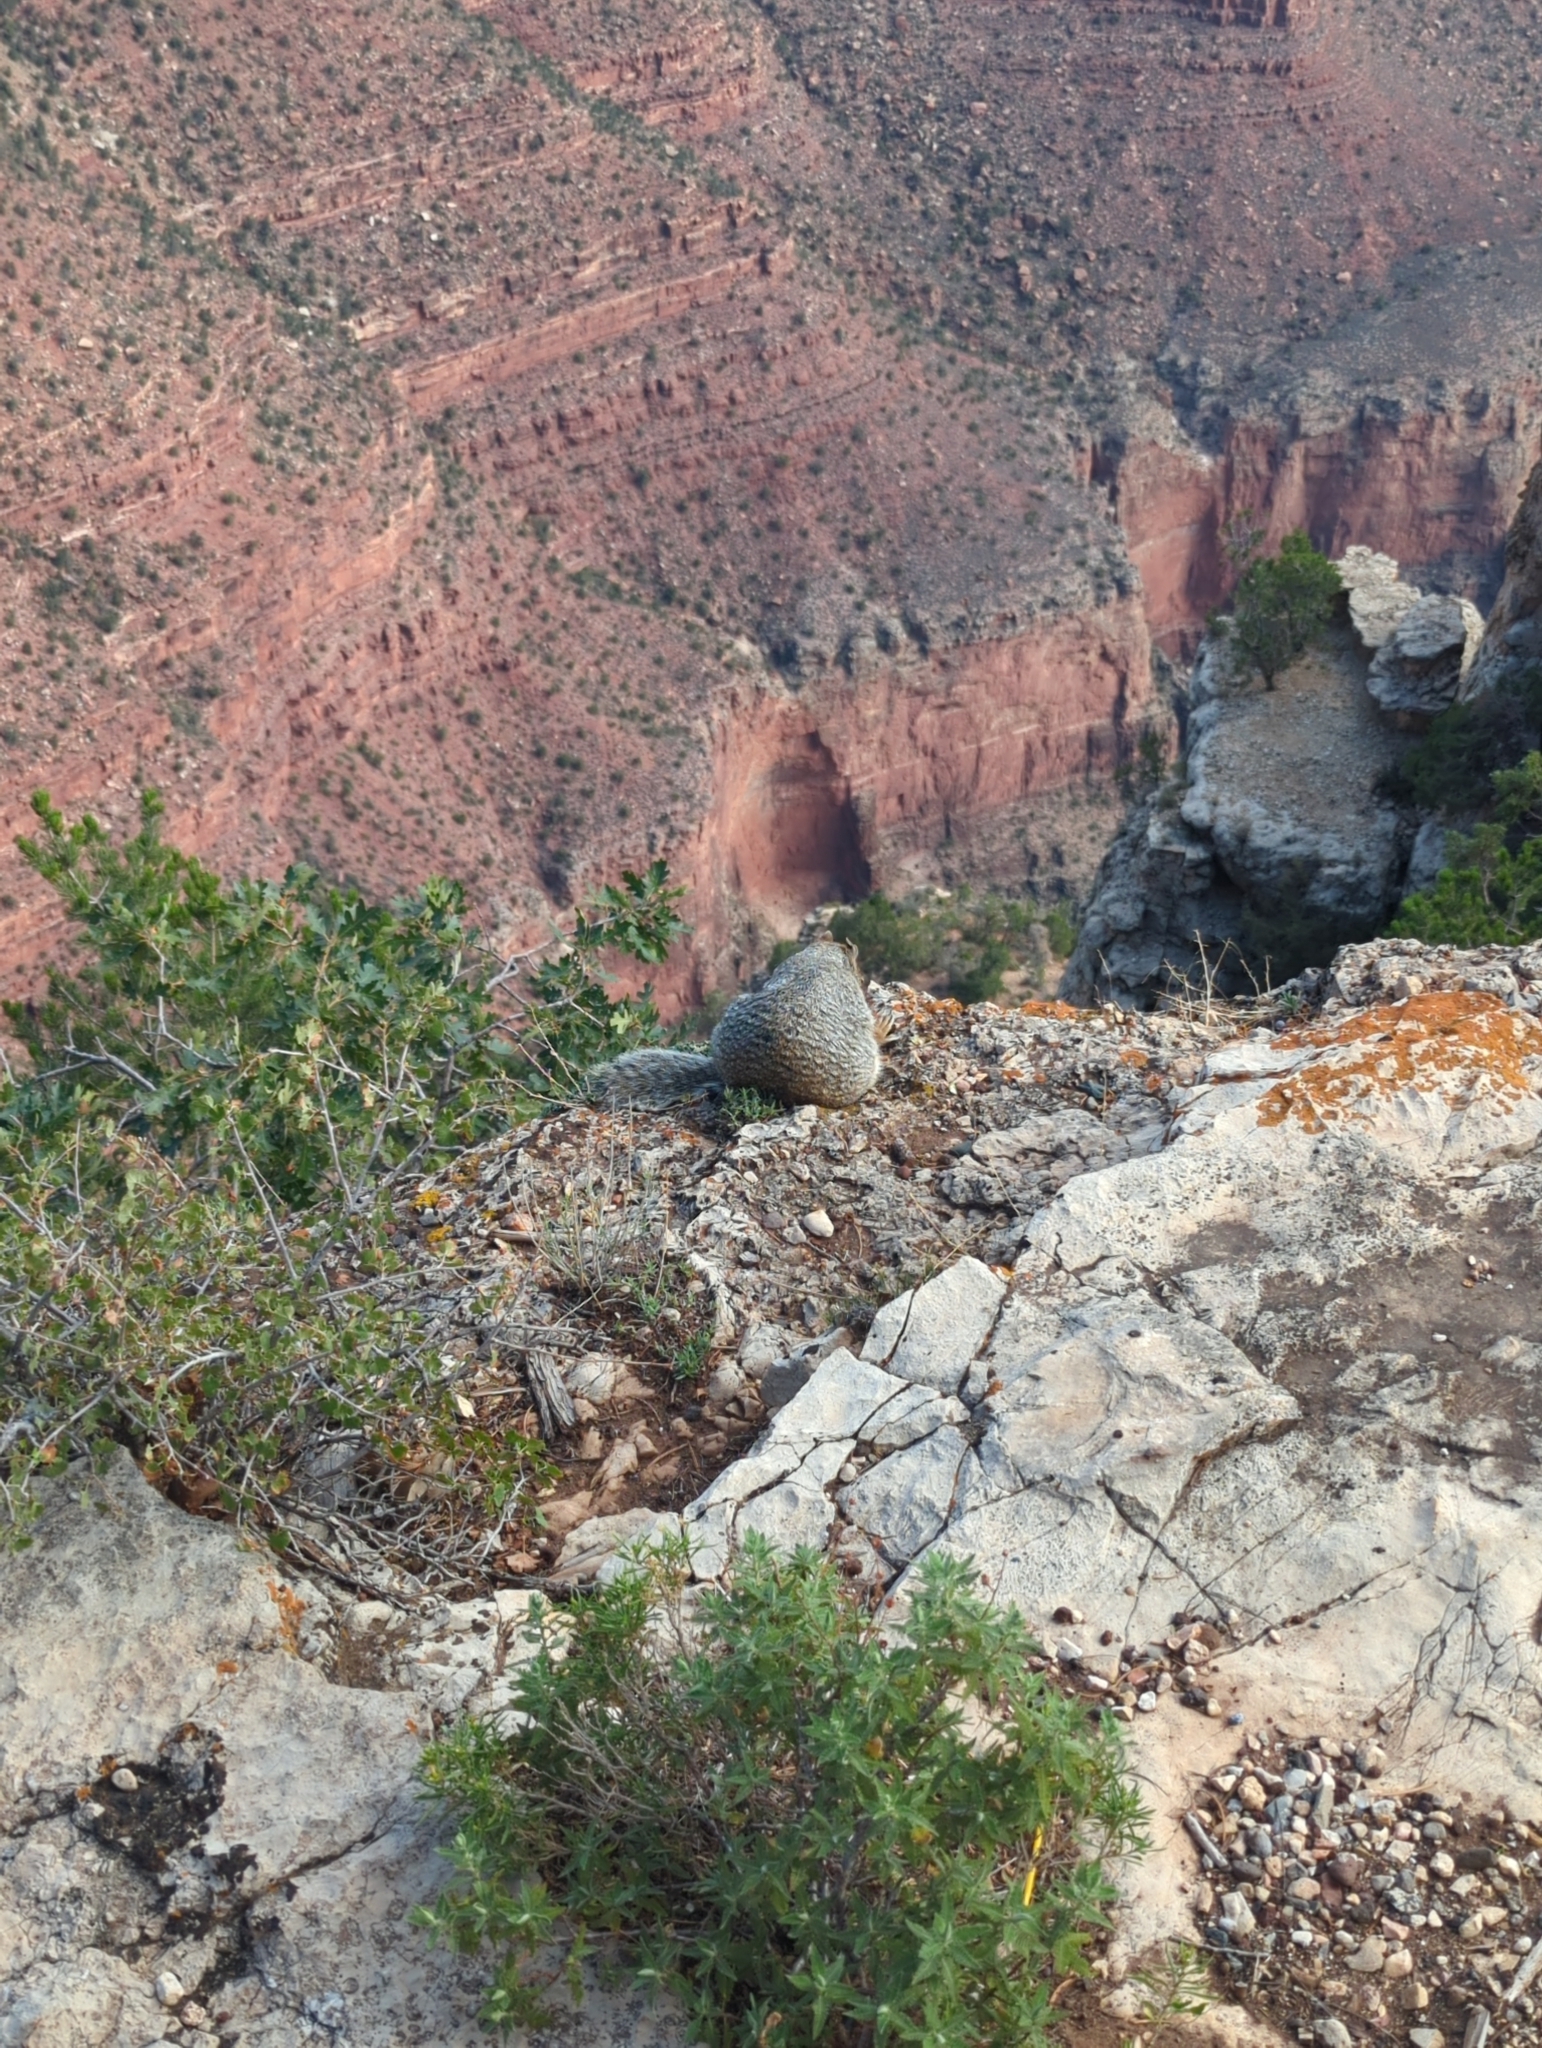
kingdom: Animalia
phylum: Chordata
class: Mammalia
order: Rodentia
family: Sciuridae
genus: Otospermophilus
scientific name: Otospermophilus variegatus
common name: Rock squirrel
